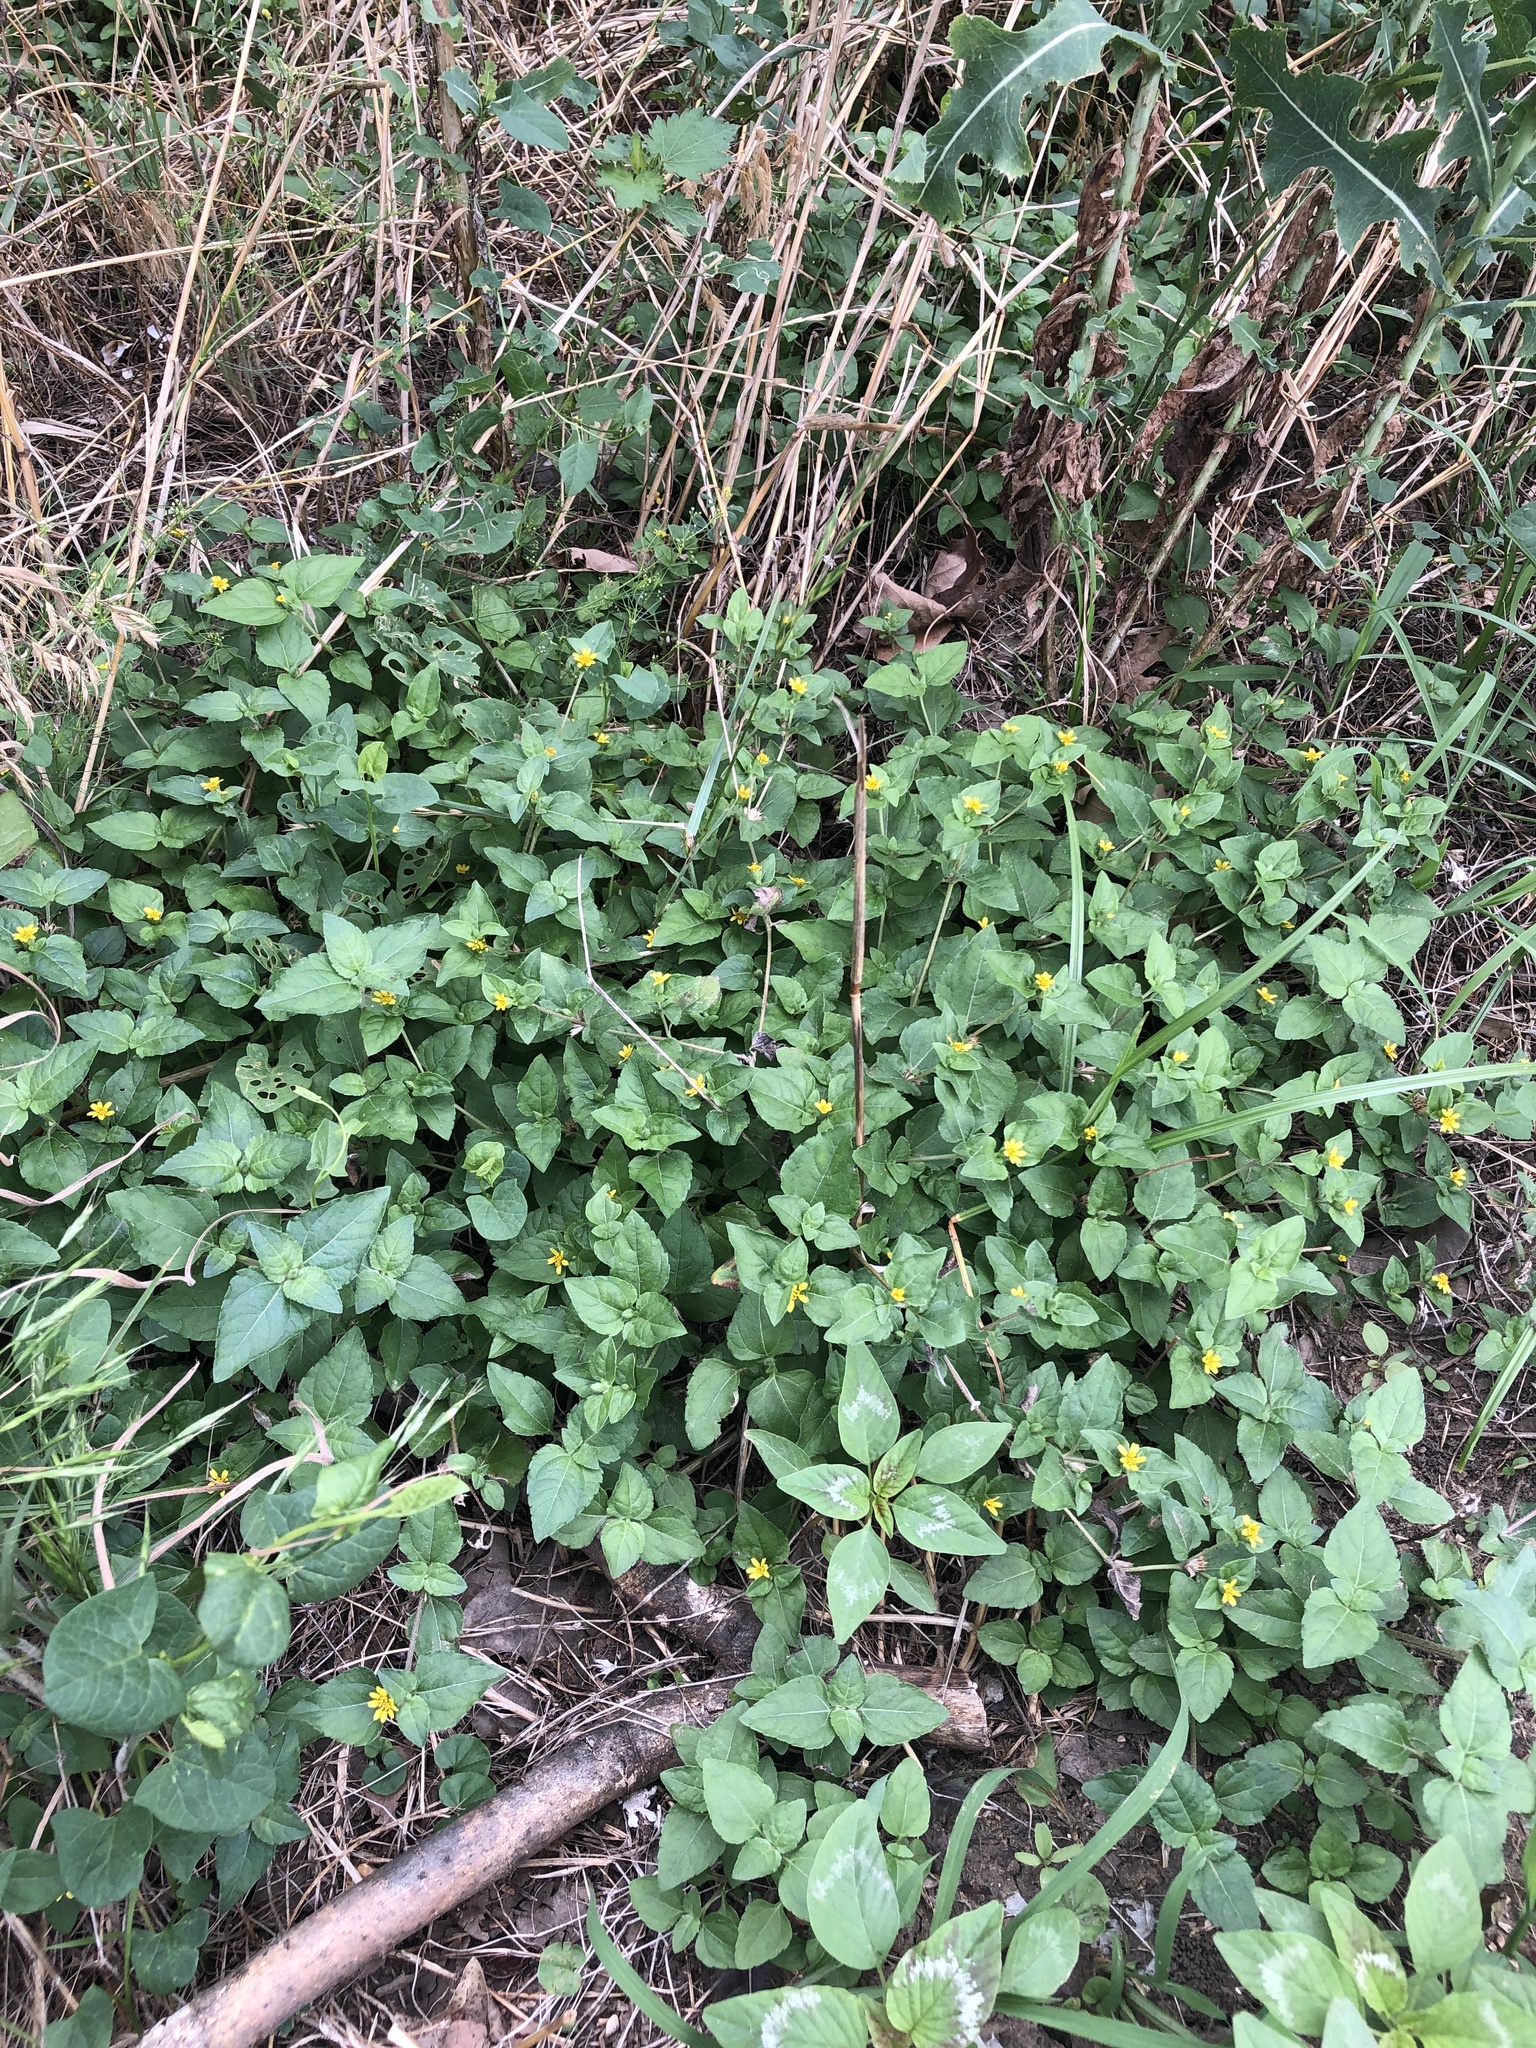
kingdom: Plantae
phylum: Tracheophyta
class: Magnoliopsida
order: Asterales
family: Asteraceae
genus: Calyptocarpus
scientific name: Calyptocarpus vialis
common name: Straggler daisy
